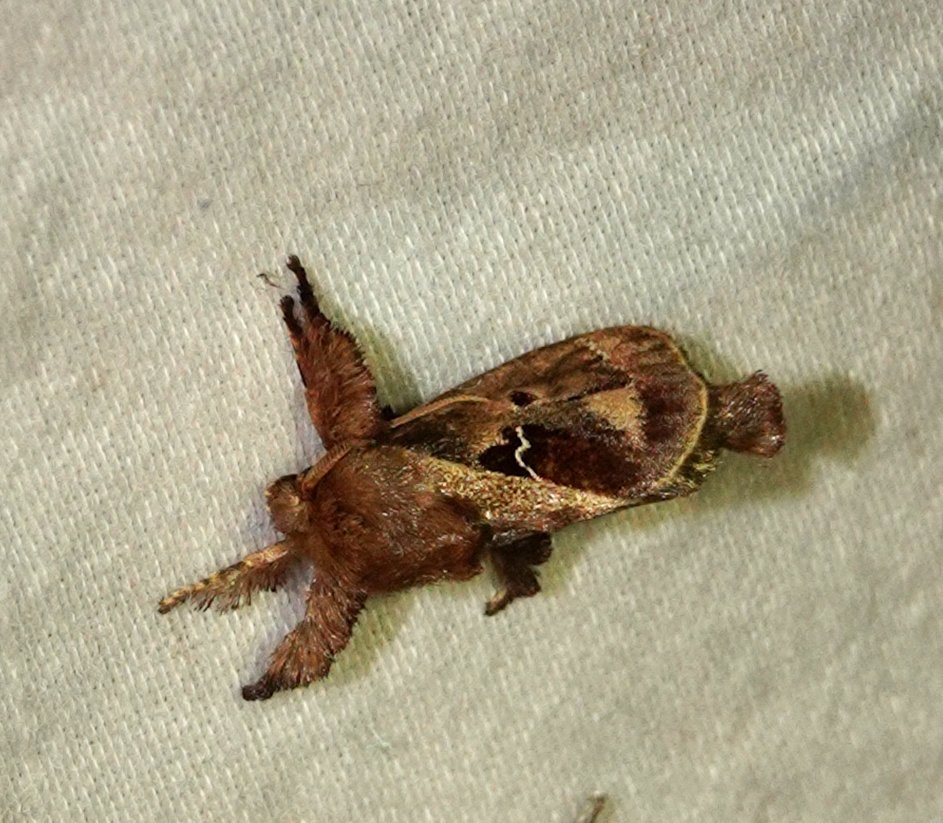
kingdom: Animalia
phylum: Arthropoda
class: Insecta
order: Lepidoptera
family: Limacodidae
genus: Euclea
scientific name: Euclea diversa
